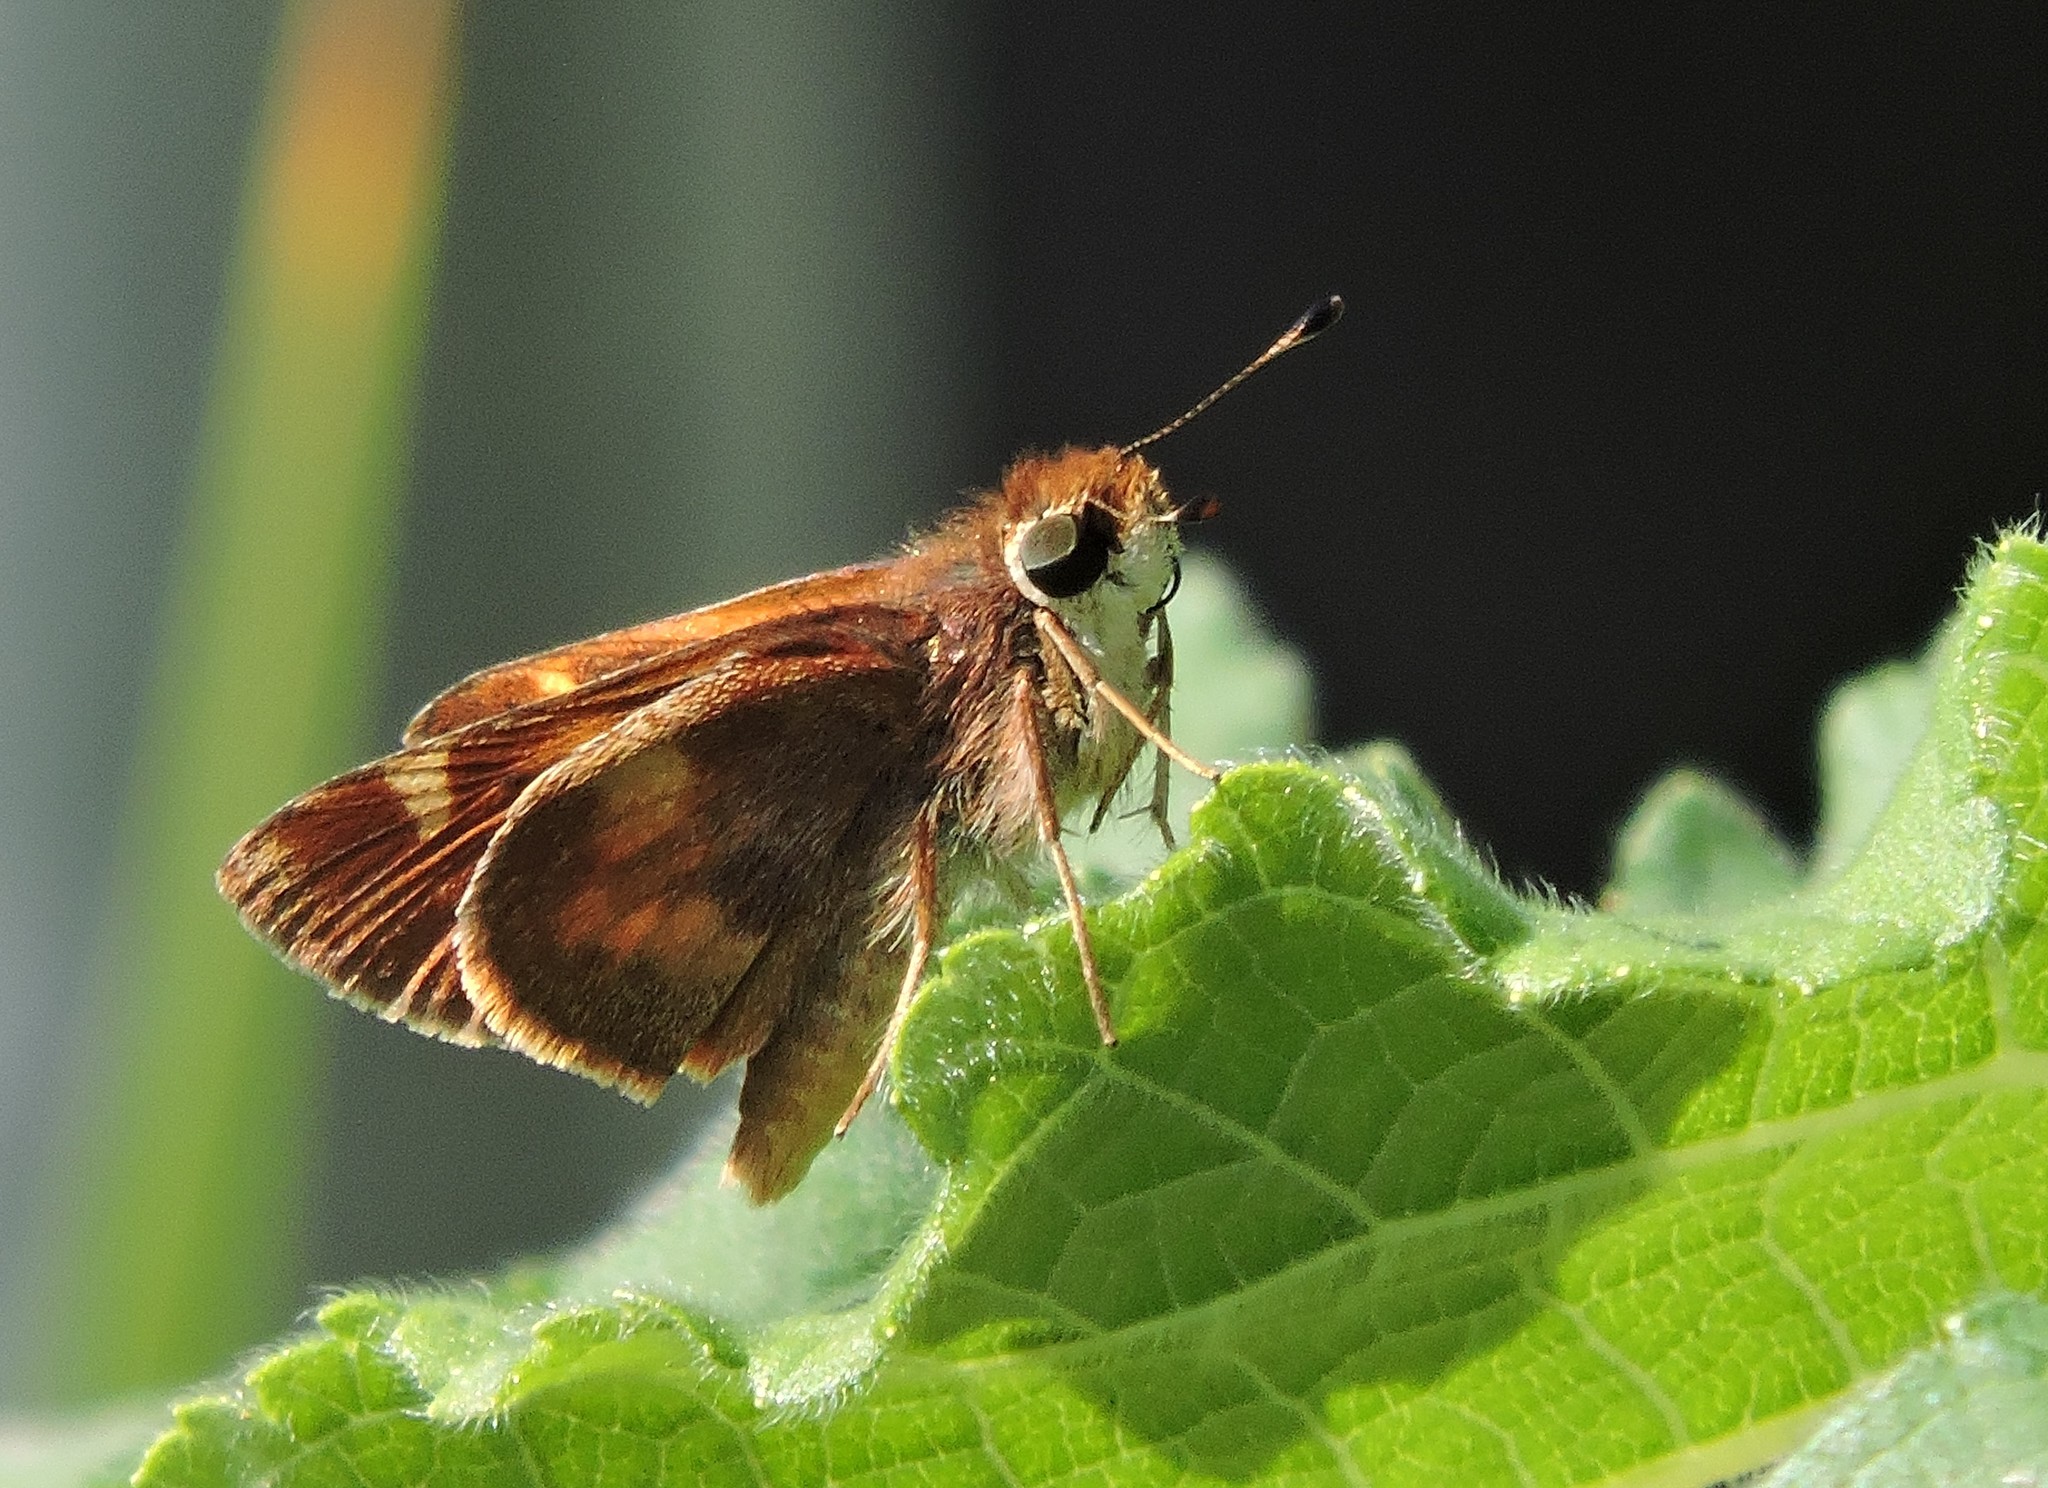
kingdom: Animalia
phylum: Arthropoda
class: Insecta
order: Lepidoptera
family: Hesperiidae
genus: Lon
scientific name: Lon melane
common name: Umber skipper
